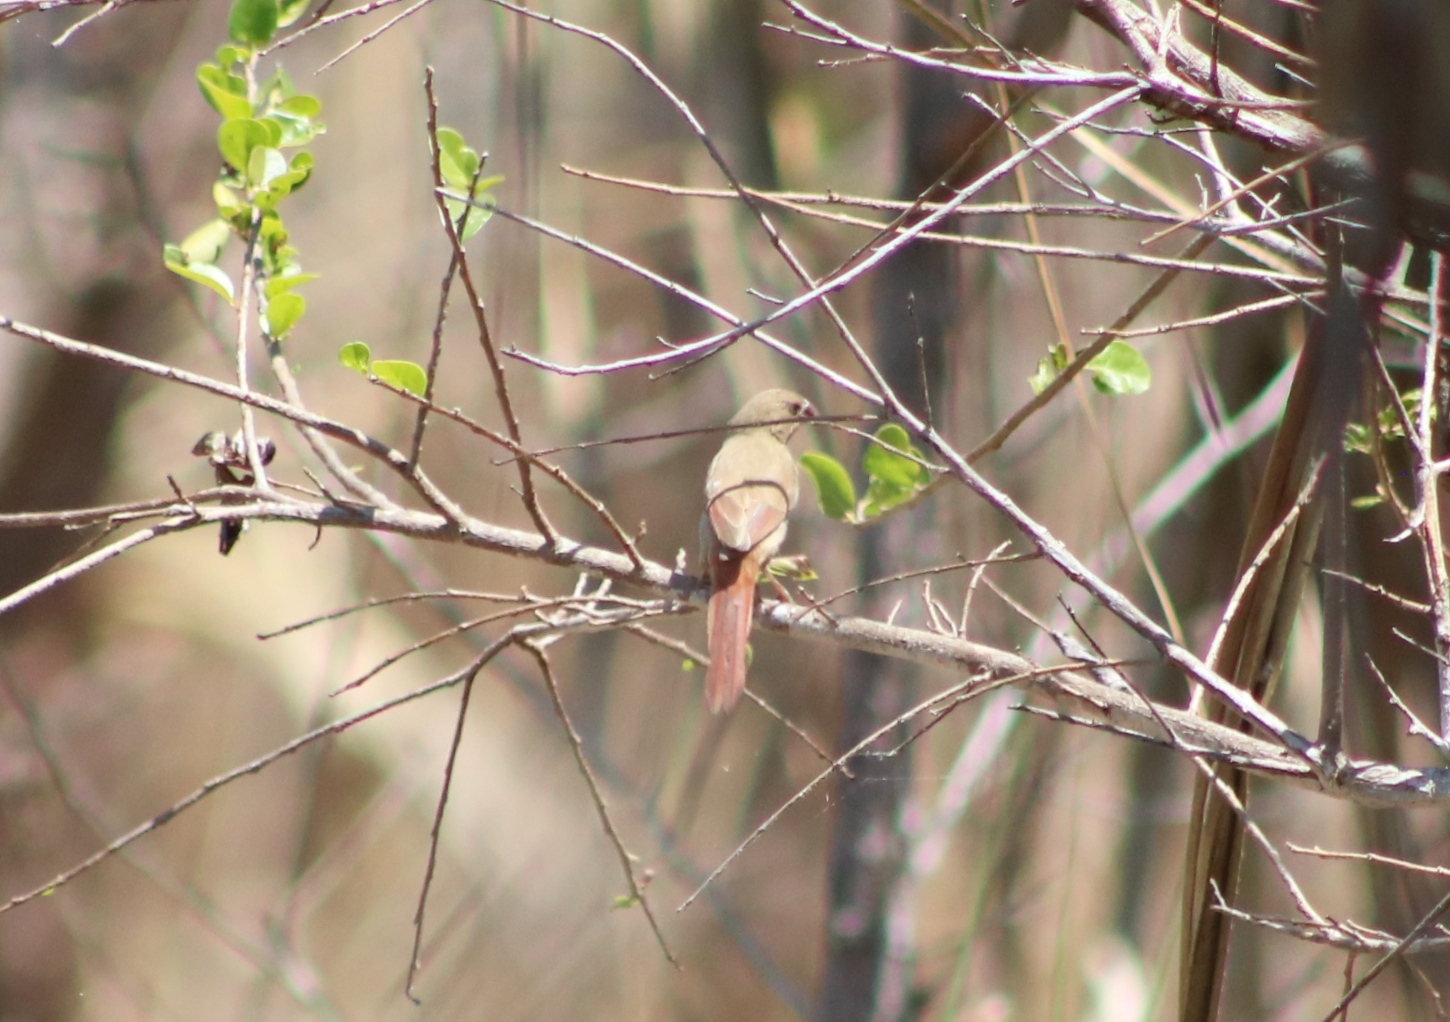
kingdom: Animalia
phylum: Chordata
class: Aves
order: Passeriformes
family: Estrildidae
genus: Neochmia
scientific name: Neochmia phaeton
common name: Crimson finch
